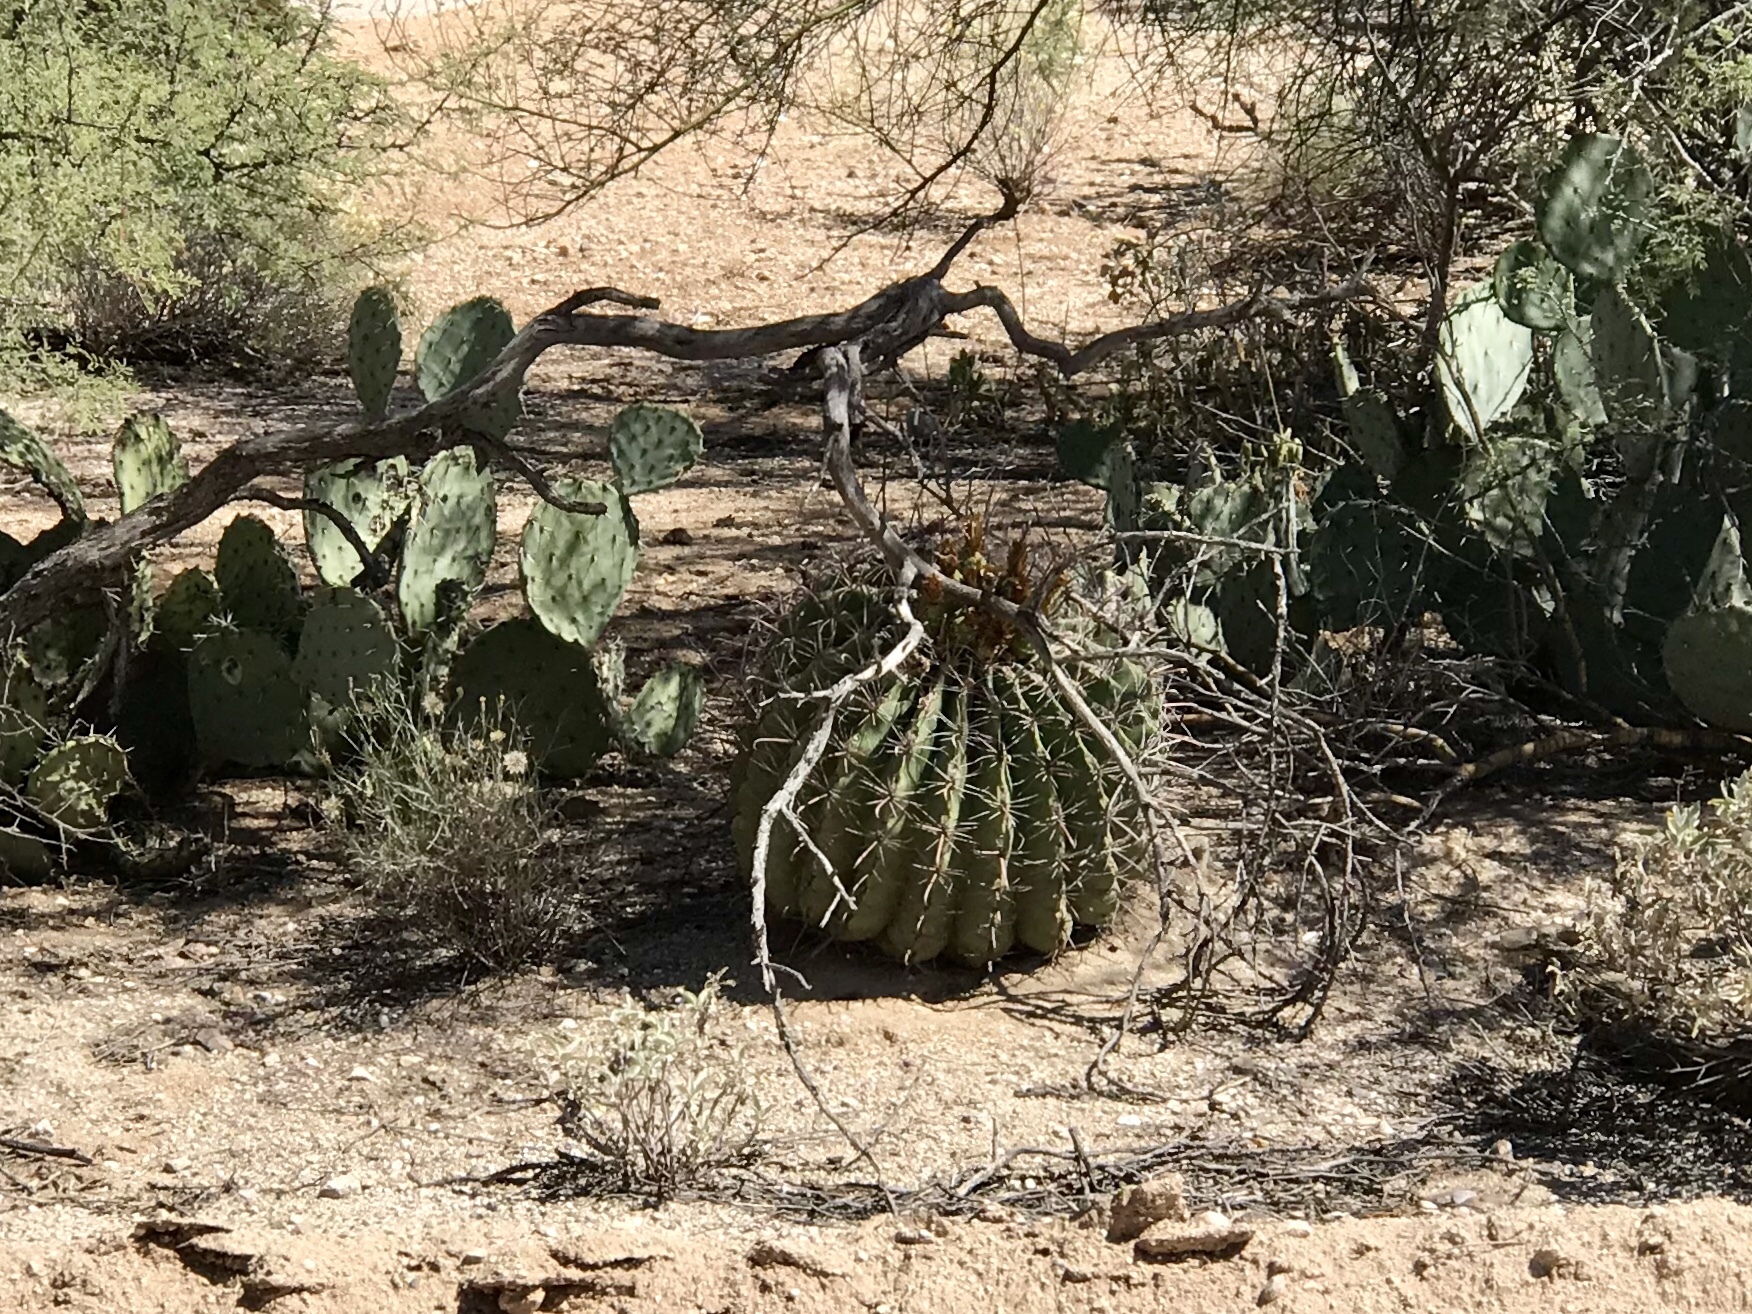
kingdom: Plantae
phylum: Tracheophyta
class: Magnoliopsida
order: Caryophyllales
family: Cactaceae
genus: Ferocactus
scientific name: Ferocactus wislizeni
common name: Candy barrel cactus
